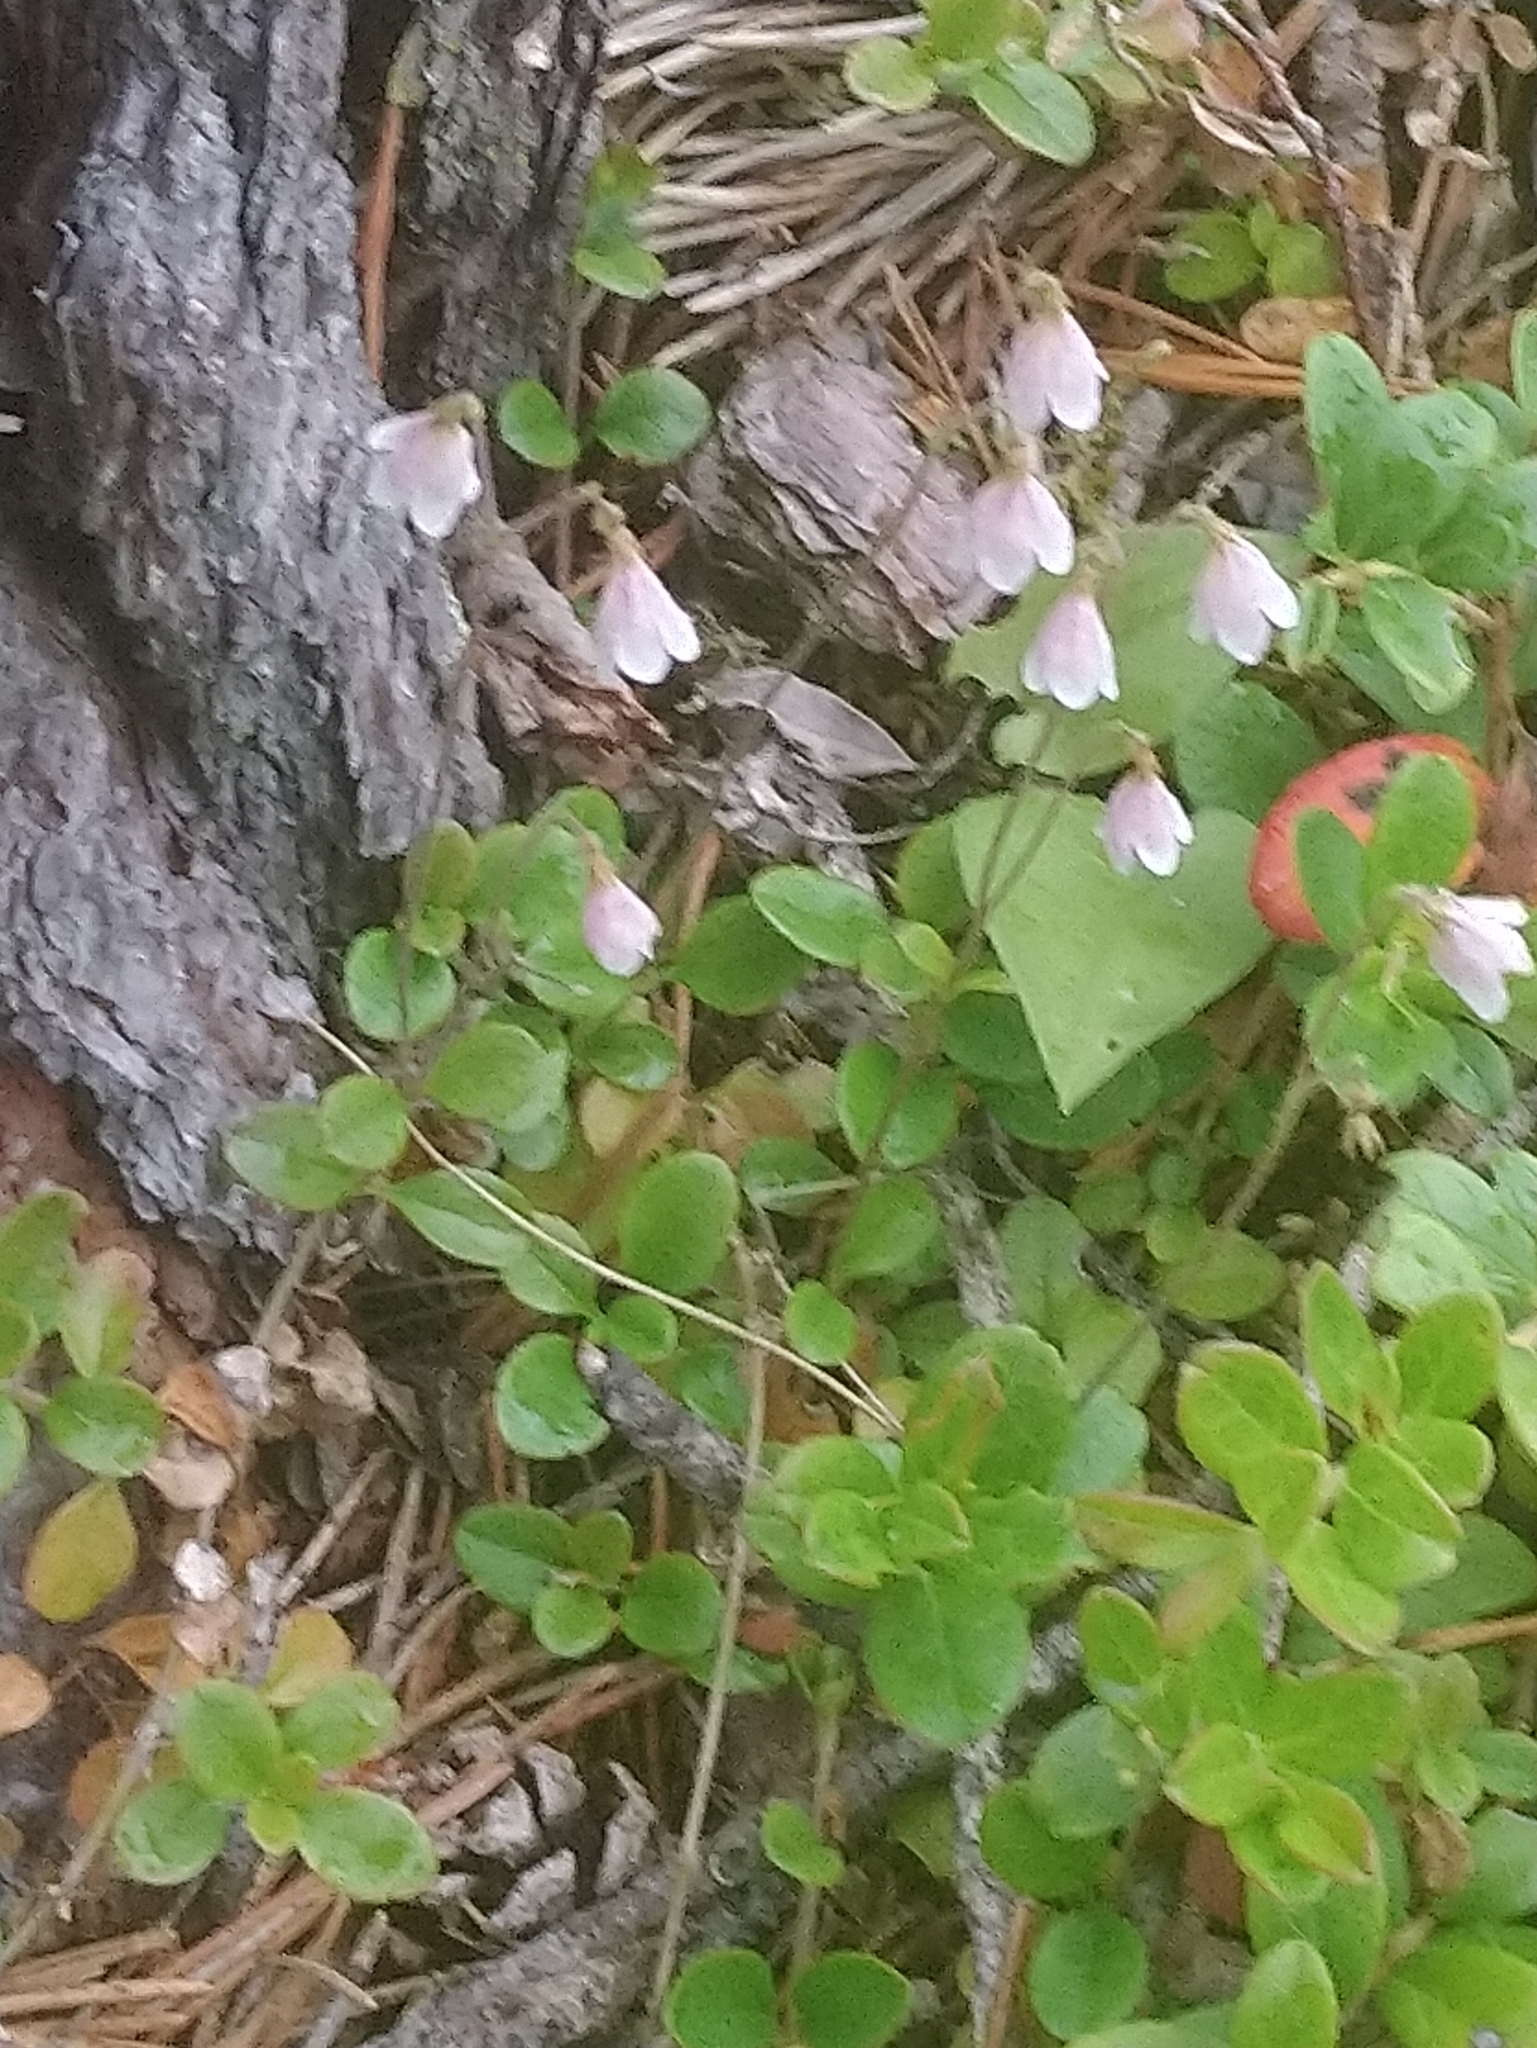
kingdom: Plantae
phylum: Tracheophyta
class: Magnoliopsida
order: Dipsacales
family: Caprifoliaceae
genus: Linnaea
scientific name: Linnaea borealis
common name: Twinflower
